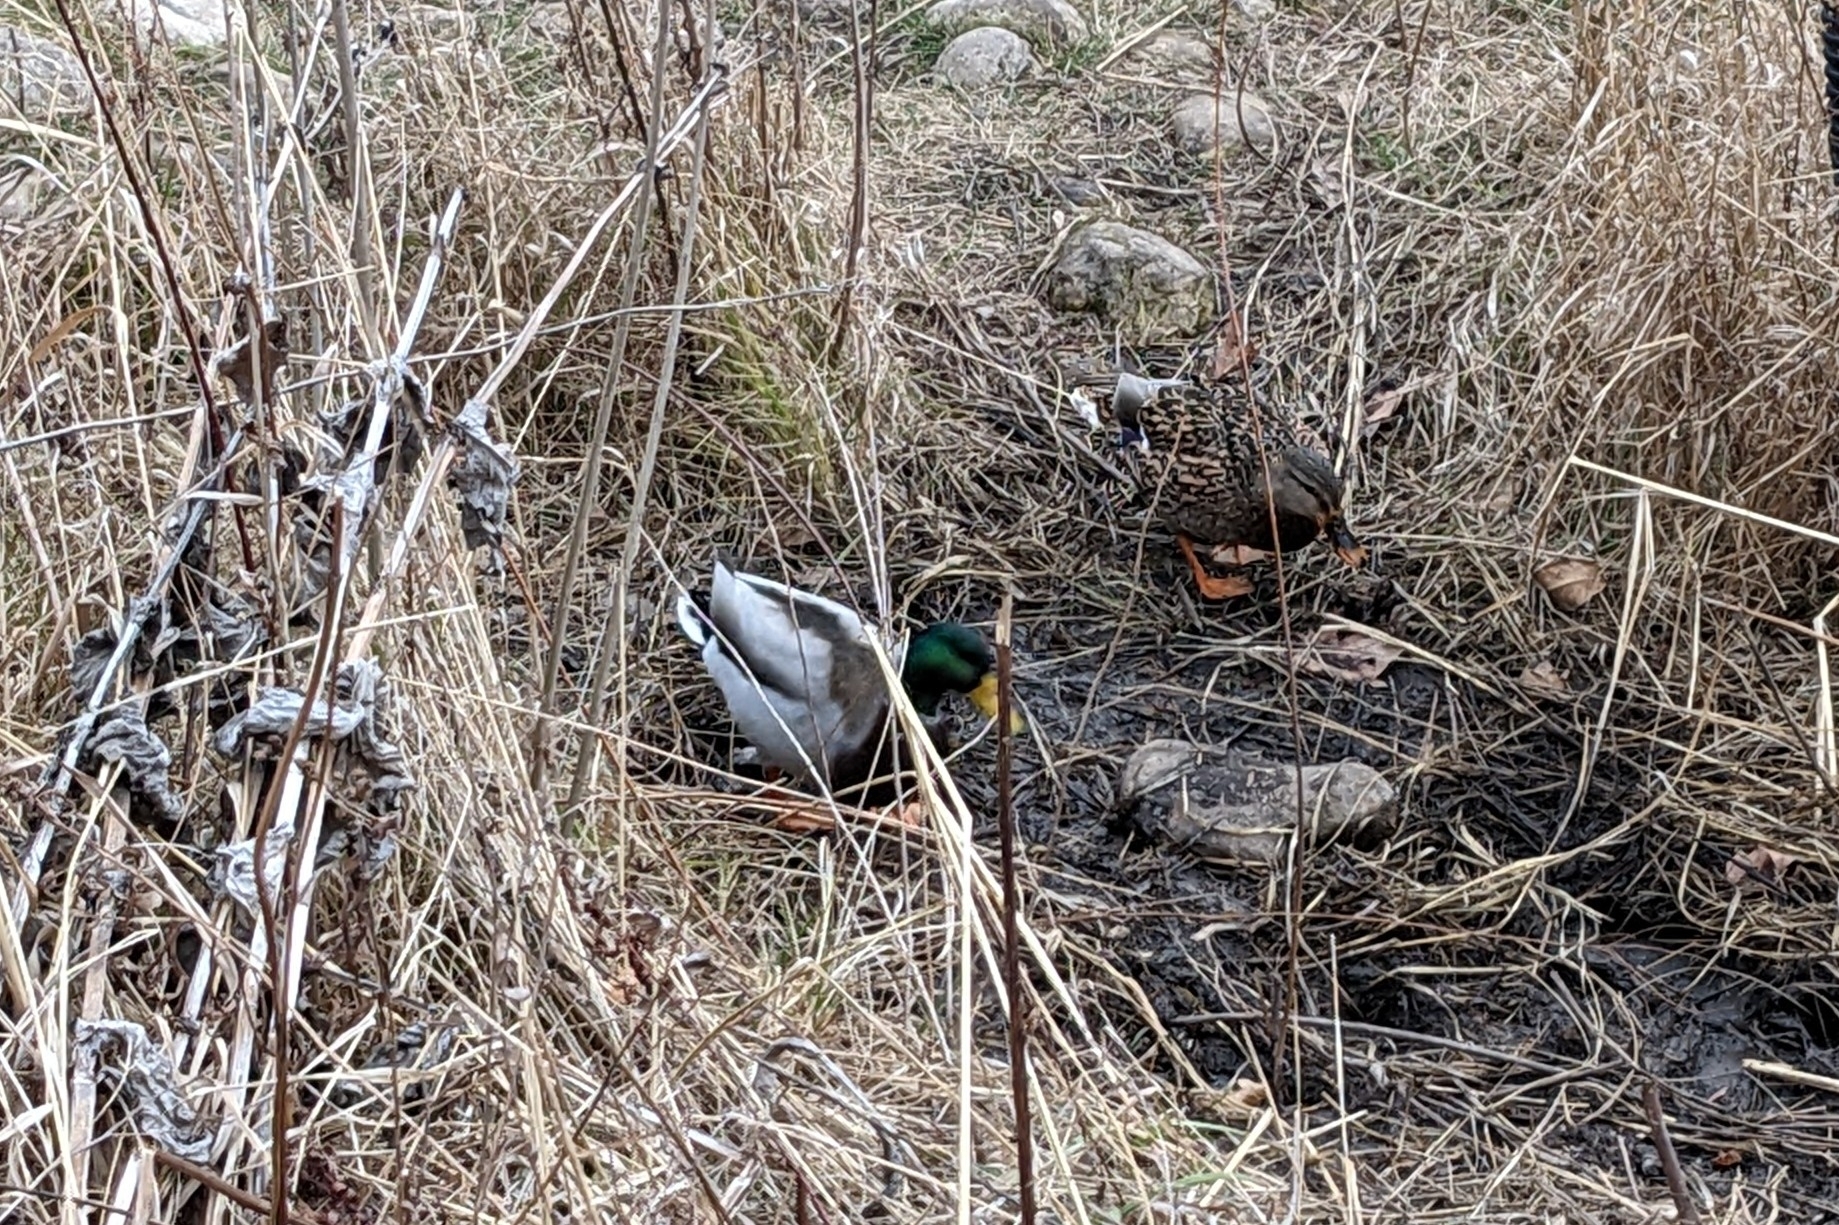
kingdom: Animalia
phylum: Chordata
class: Aves
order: Anseriformes
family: Anatidae
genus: Anas
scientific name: Anas platyrhynchos
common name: Mallard
